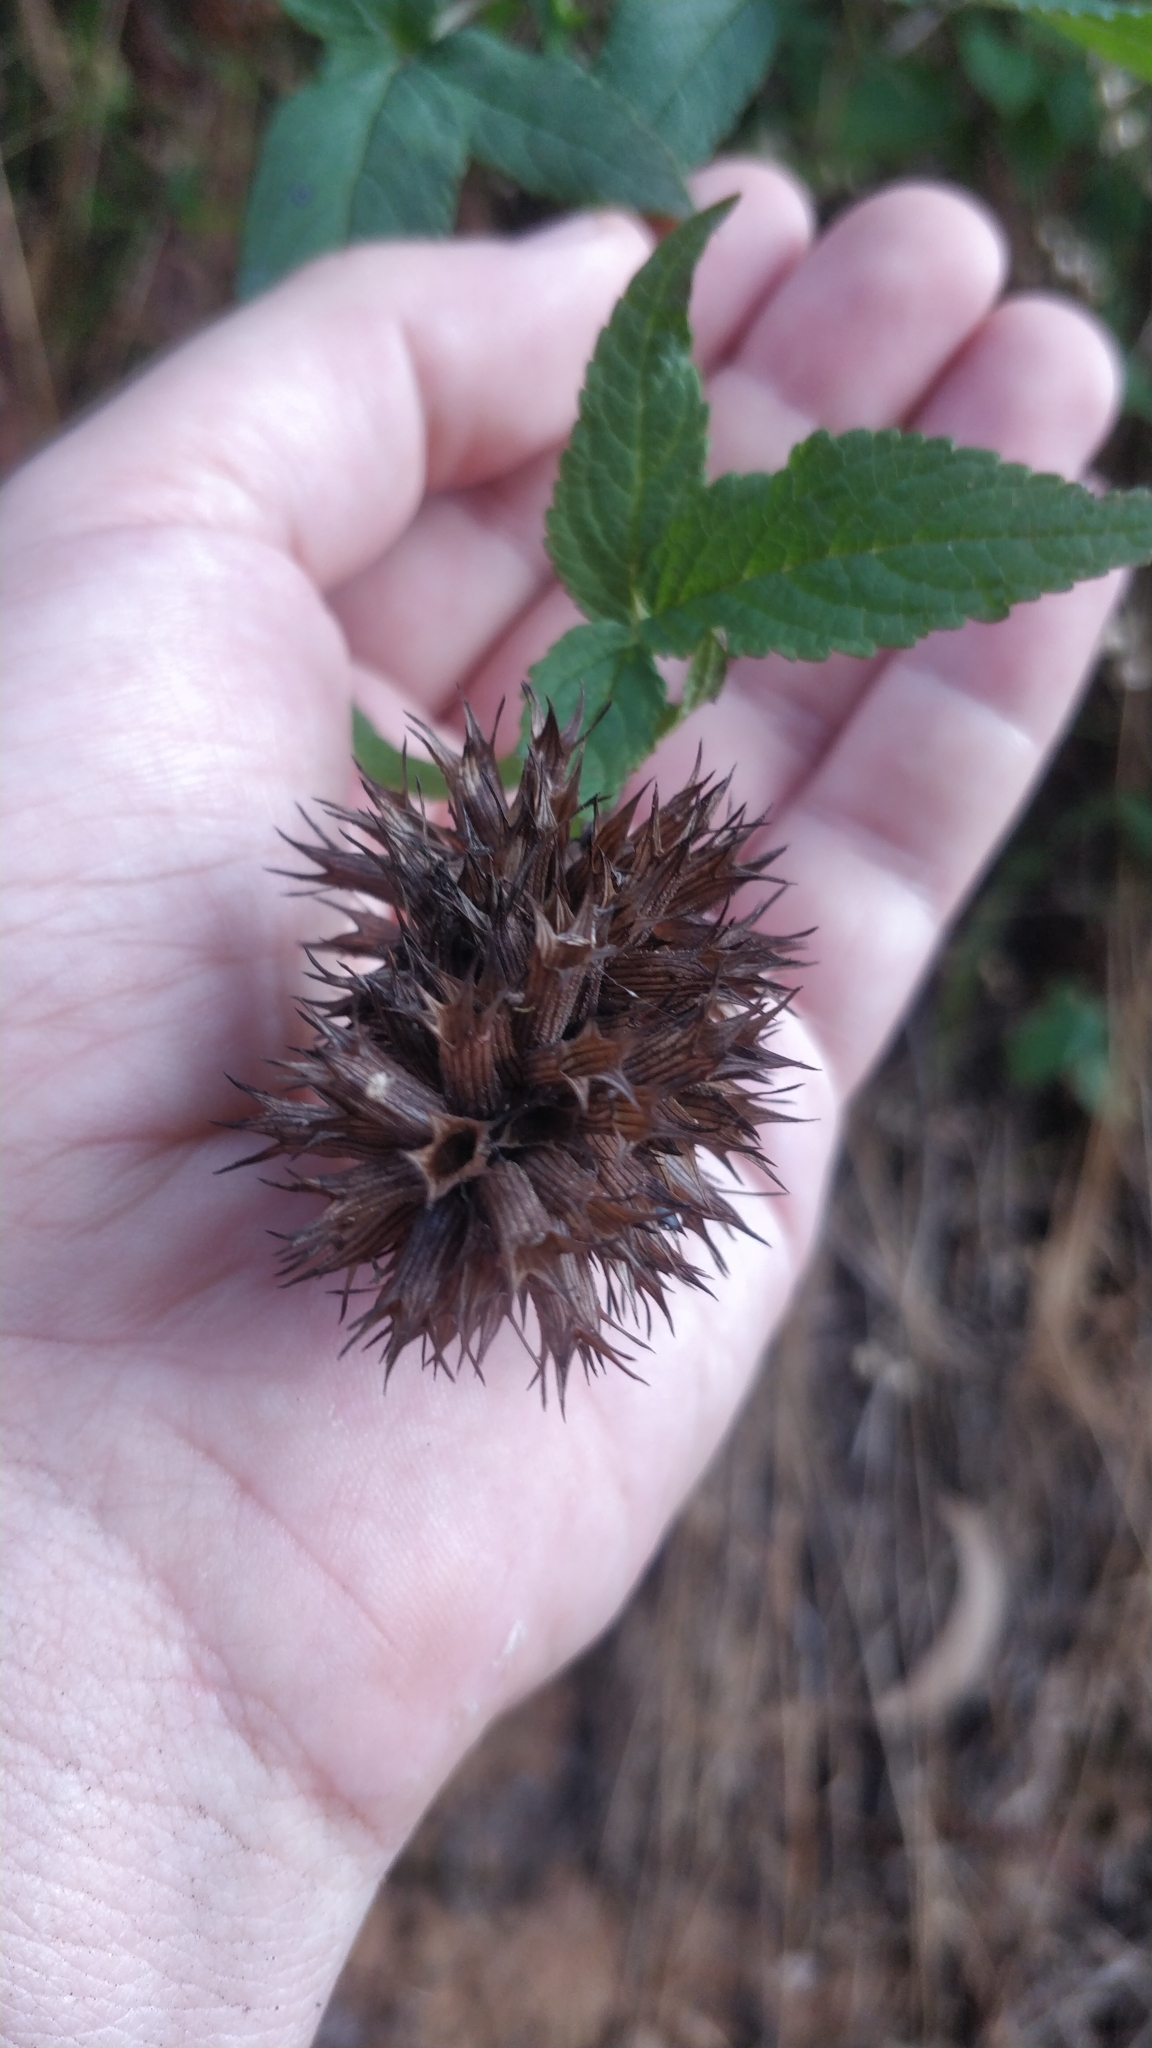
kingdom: Plantae
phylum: Tracheophyta
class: Magnoliopsida
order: Lamiales
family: Lamiaceae
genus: Cedronella
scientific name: Cedronella canariensis
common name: Canary islands balm
